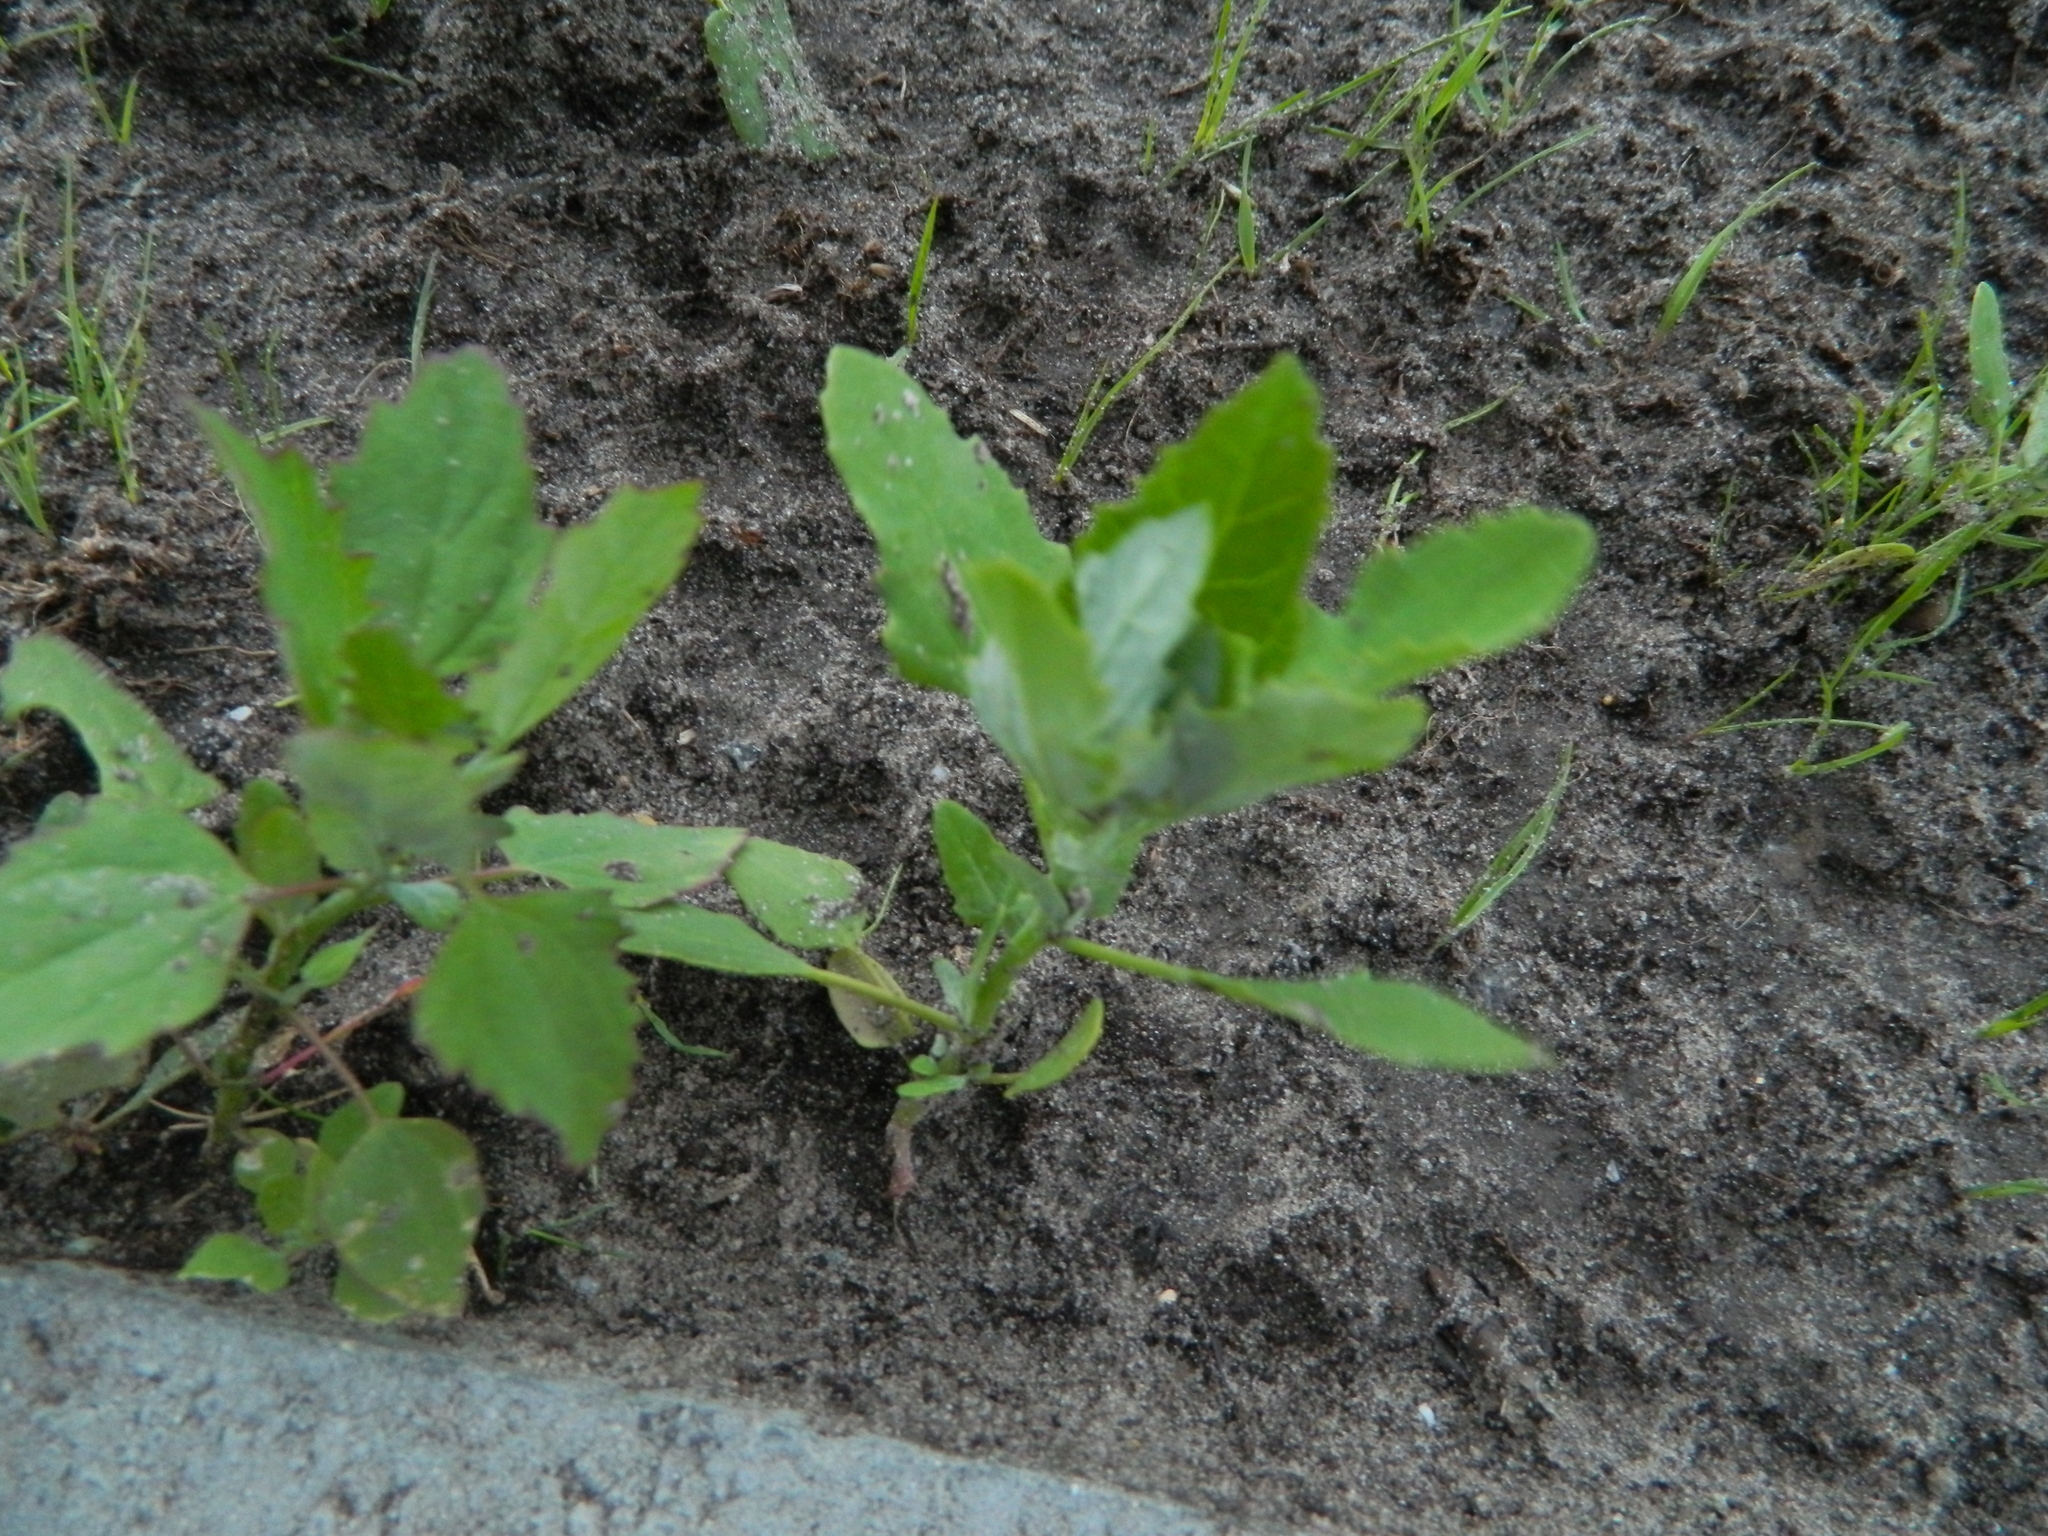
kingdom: Plantae
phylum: Tracheophyta
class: Magnoliopsida
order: Caryophyllales
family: Amaranthaceae
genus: Chenopodium
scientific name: Chenopodium album
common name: Fat-hen
